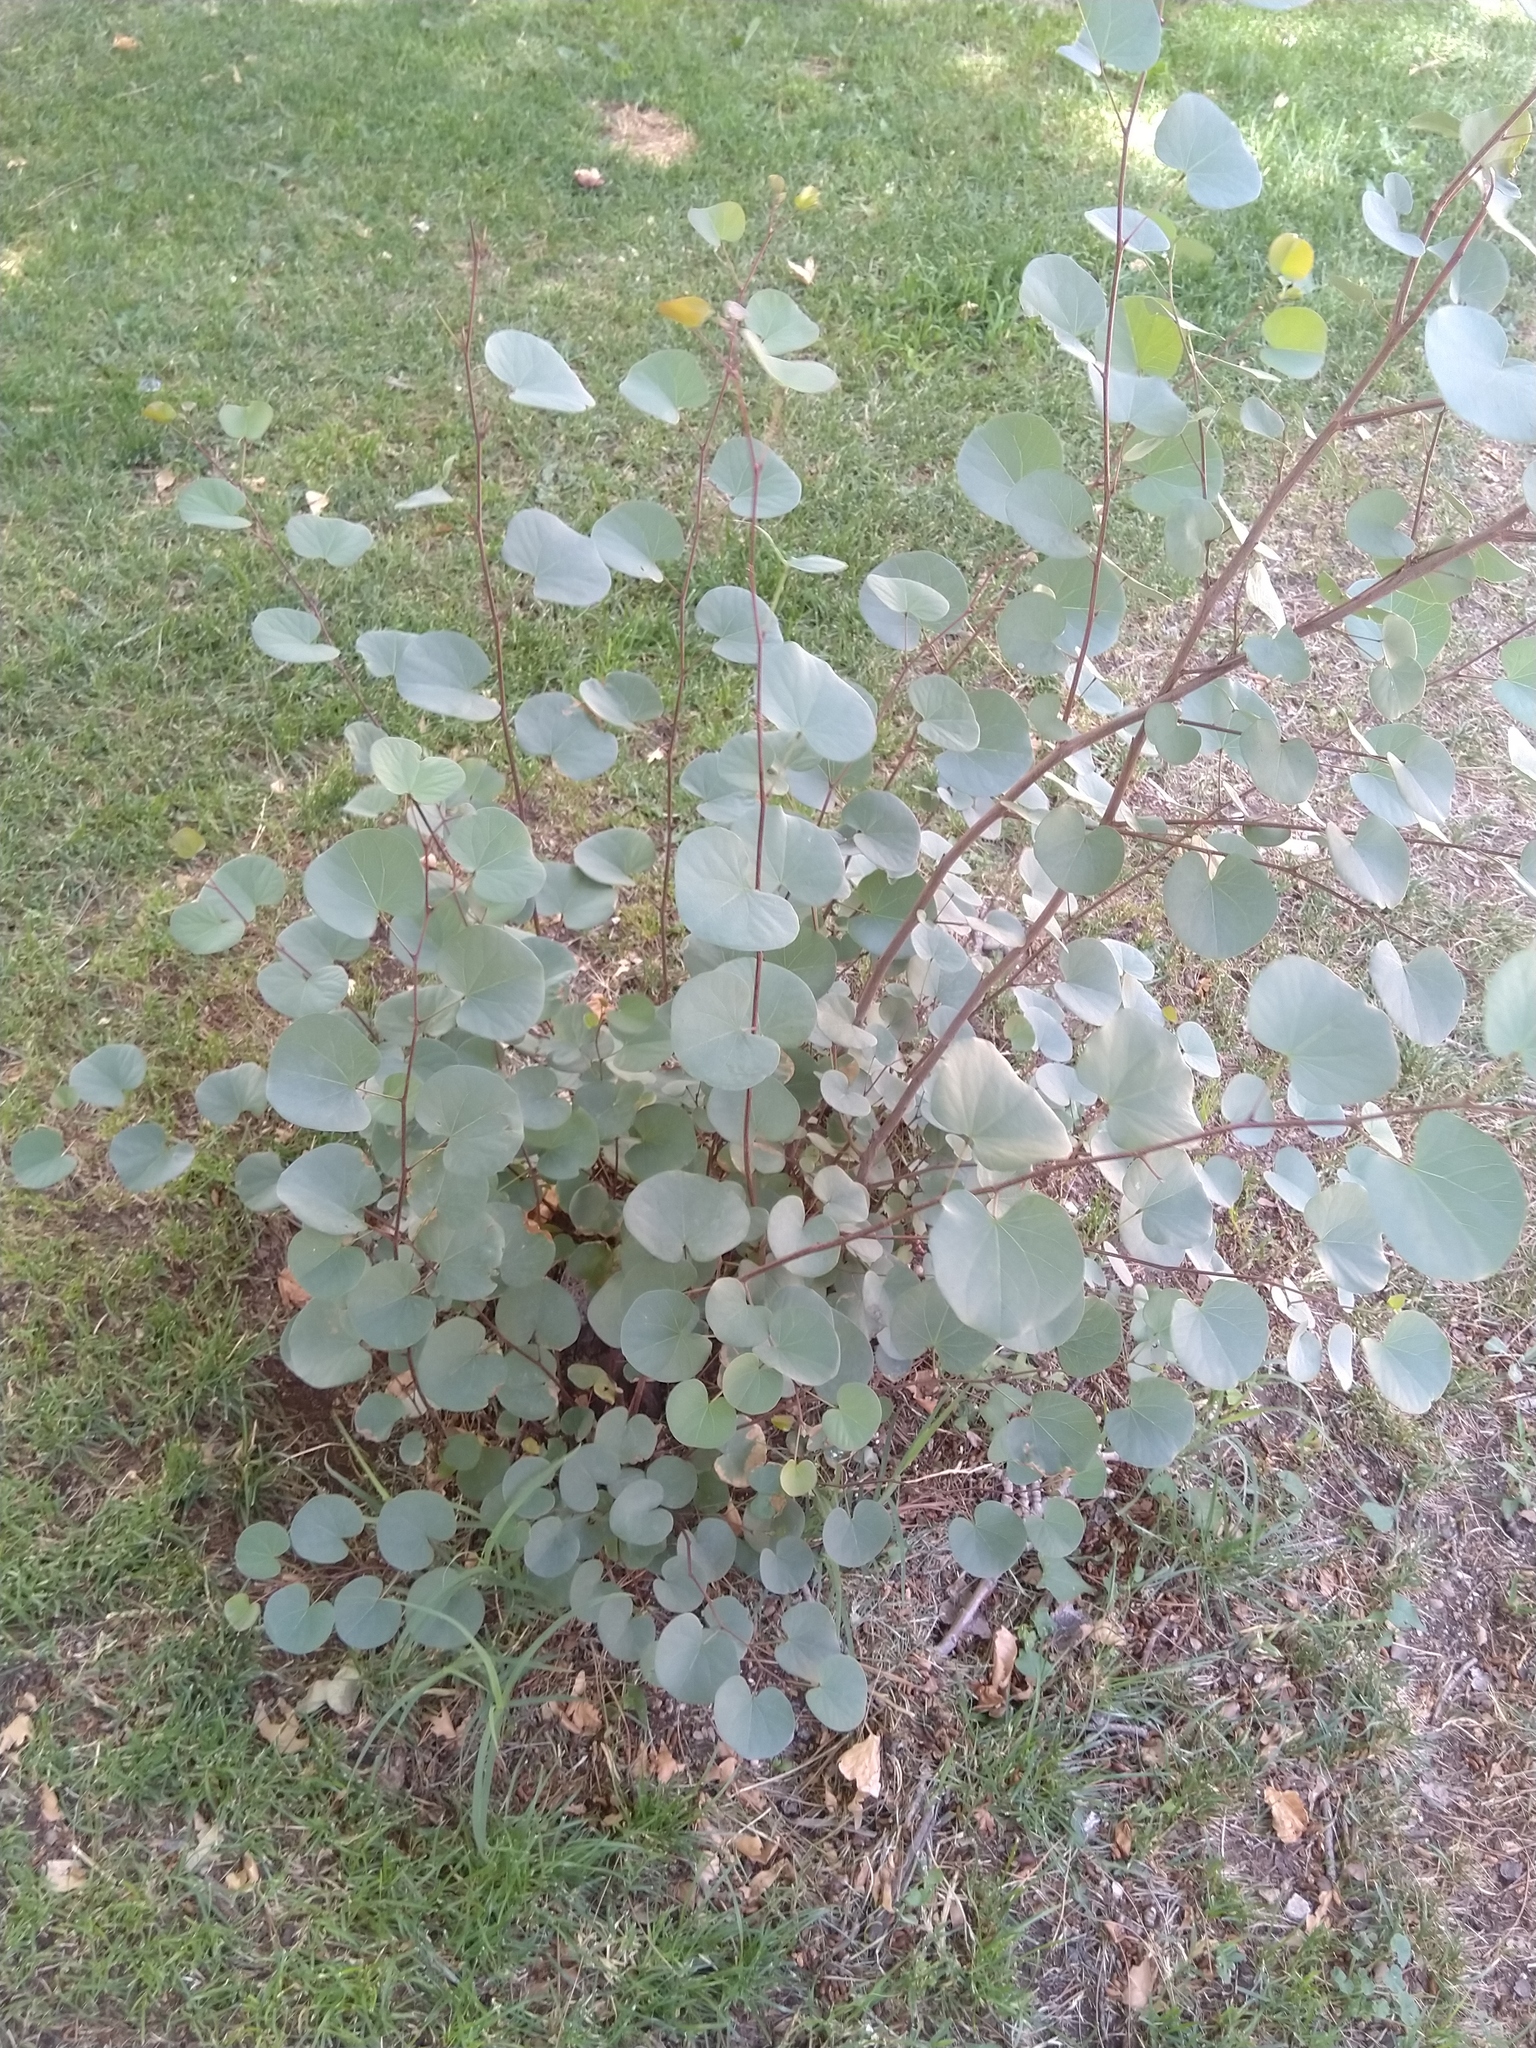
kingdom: Plantae
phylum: Tracheophyta
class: Magnoliopsida
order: Fabales
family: Fabaceae
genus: Cercis
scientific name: Cercis siliquastrum
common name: Judas tree
